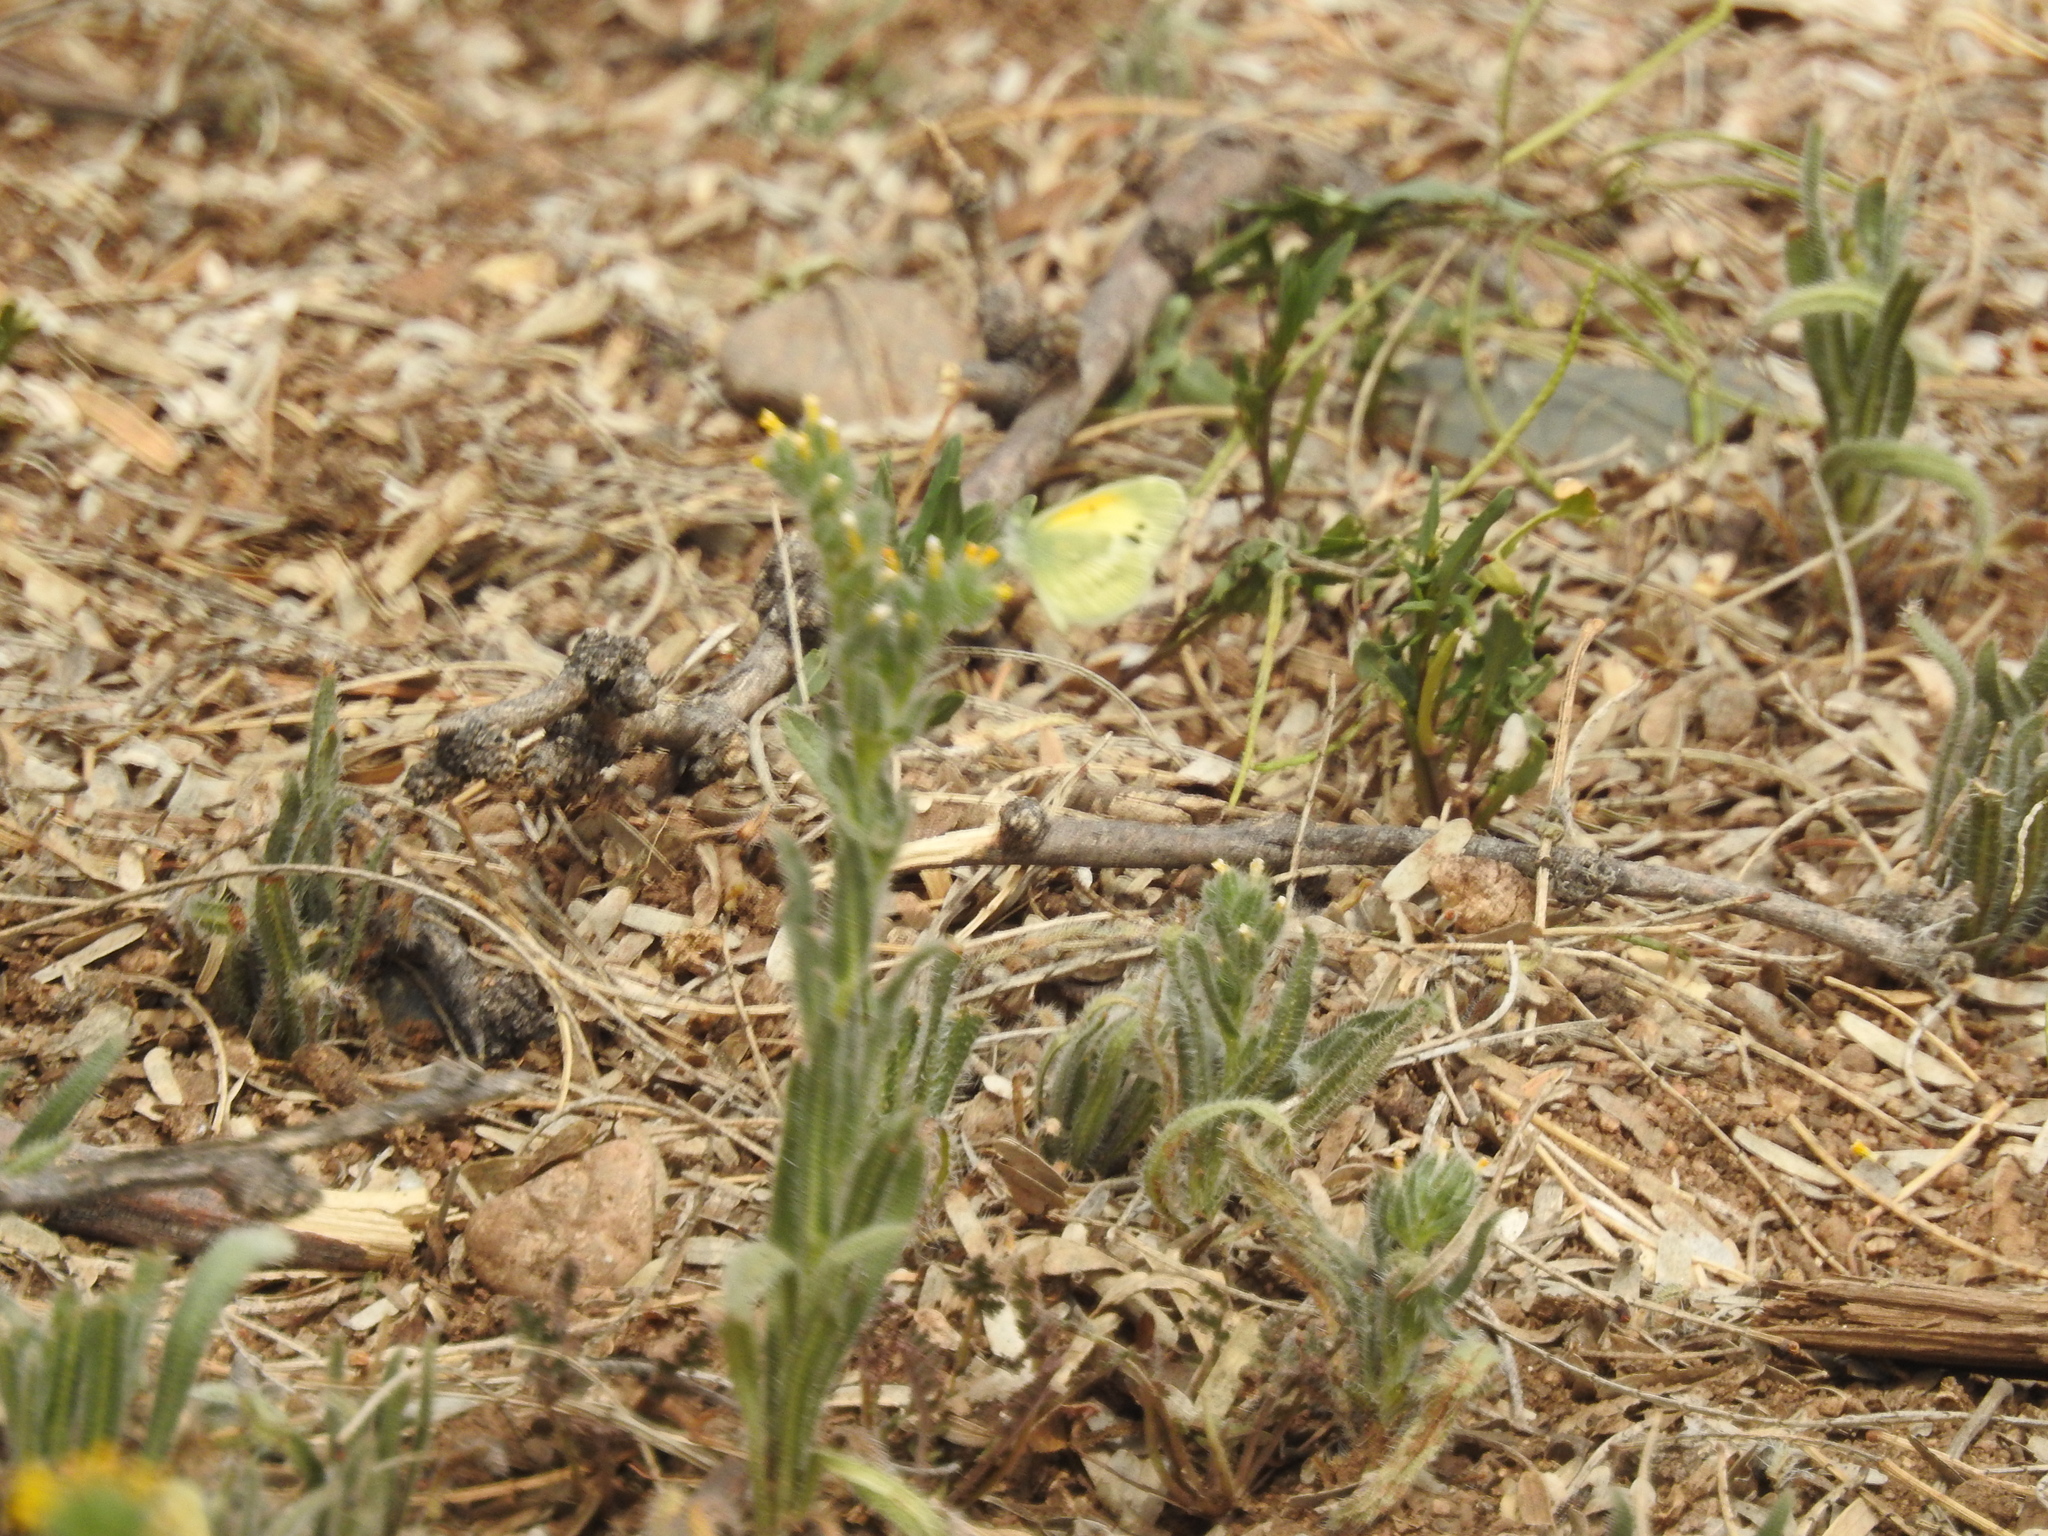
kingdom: Animalia
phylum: Arthropoda
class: Insecta
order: Lepidoptera
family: Pieridae
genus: Nathalis
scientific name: Nathalis iole
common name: Dainty sulphur
